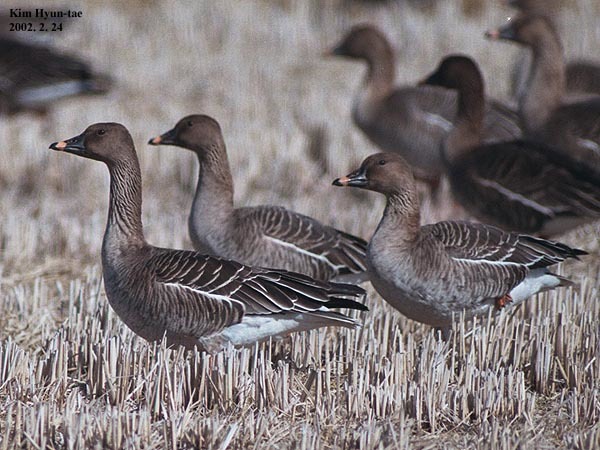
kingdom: Animalia
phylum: Chordata
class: Aves
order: Anseriformes
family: Anatidae
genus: Anser
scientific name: Anser serrirostris
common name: Tundra bean goose
